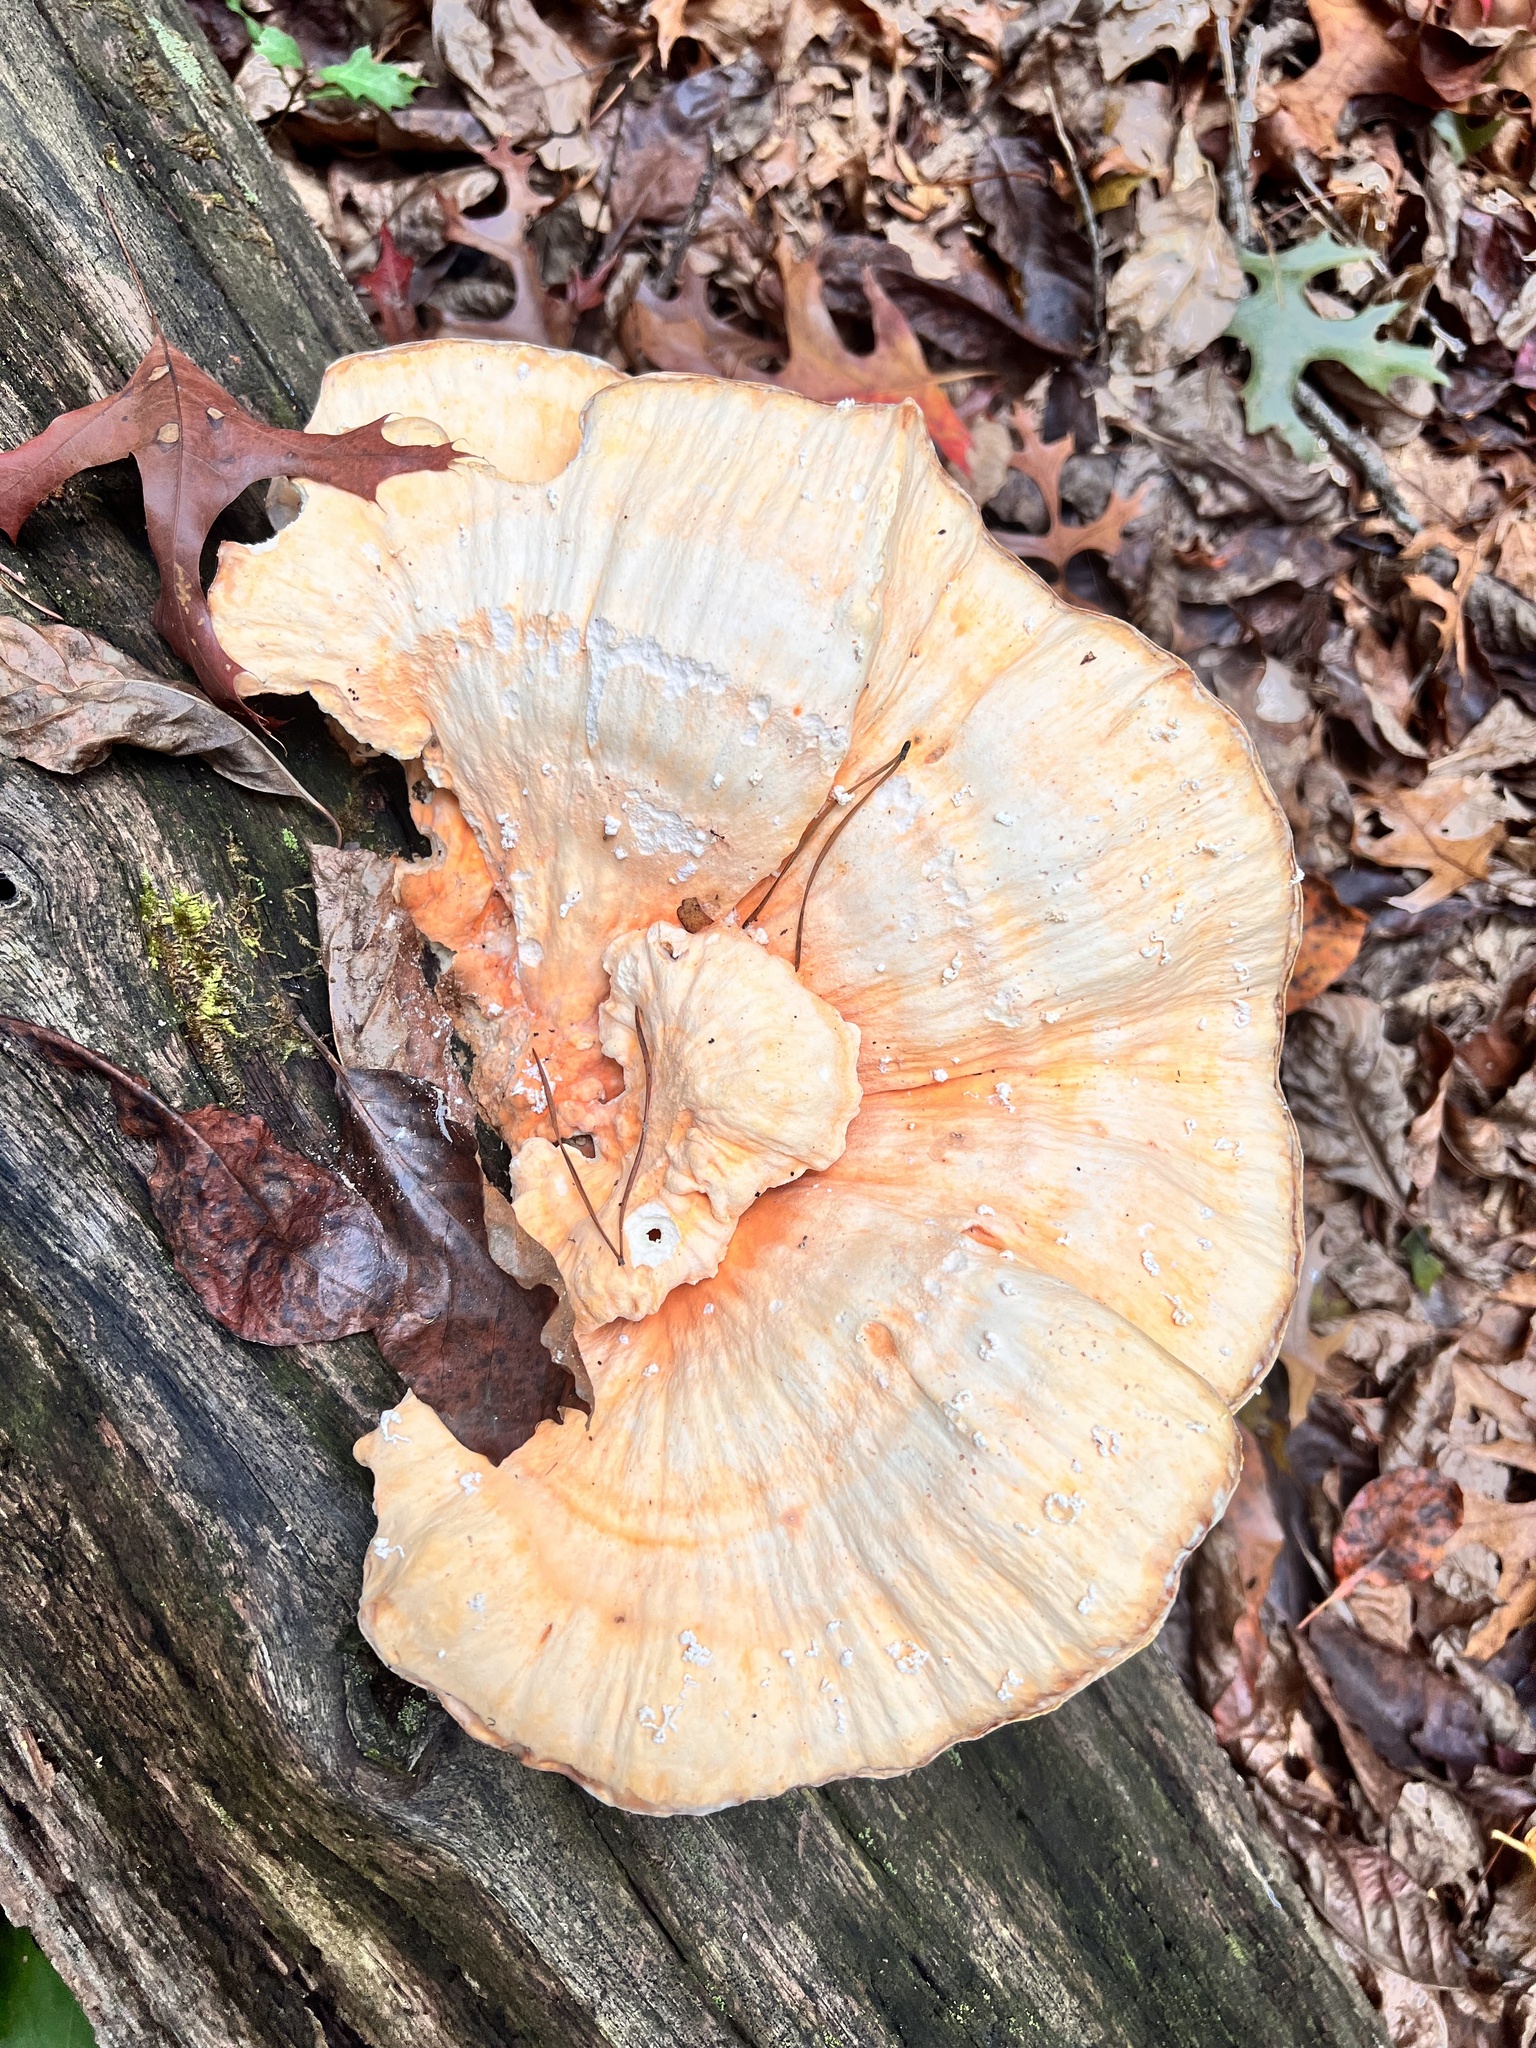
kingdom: Fungi
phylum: Basidiomycota
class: Agaricomycetes
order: Polyporales
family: Laetiporaceae
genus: Laetiporus
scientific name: Laetiporus sulphureus
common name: Chicken of the woods
